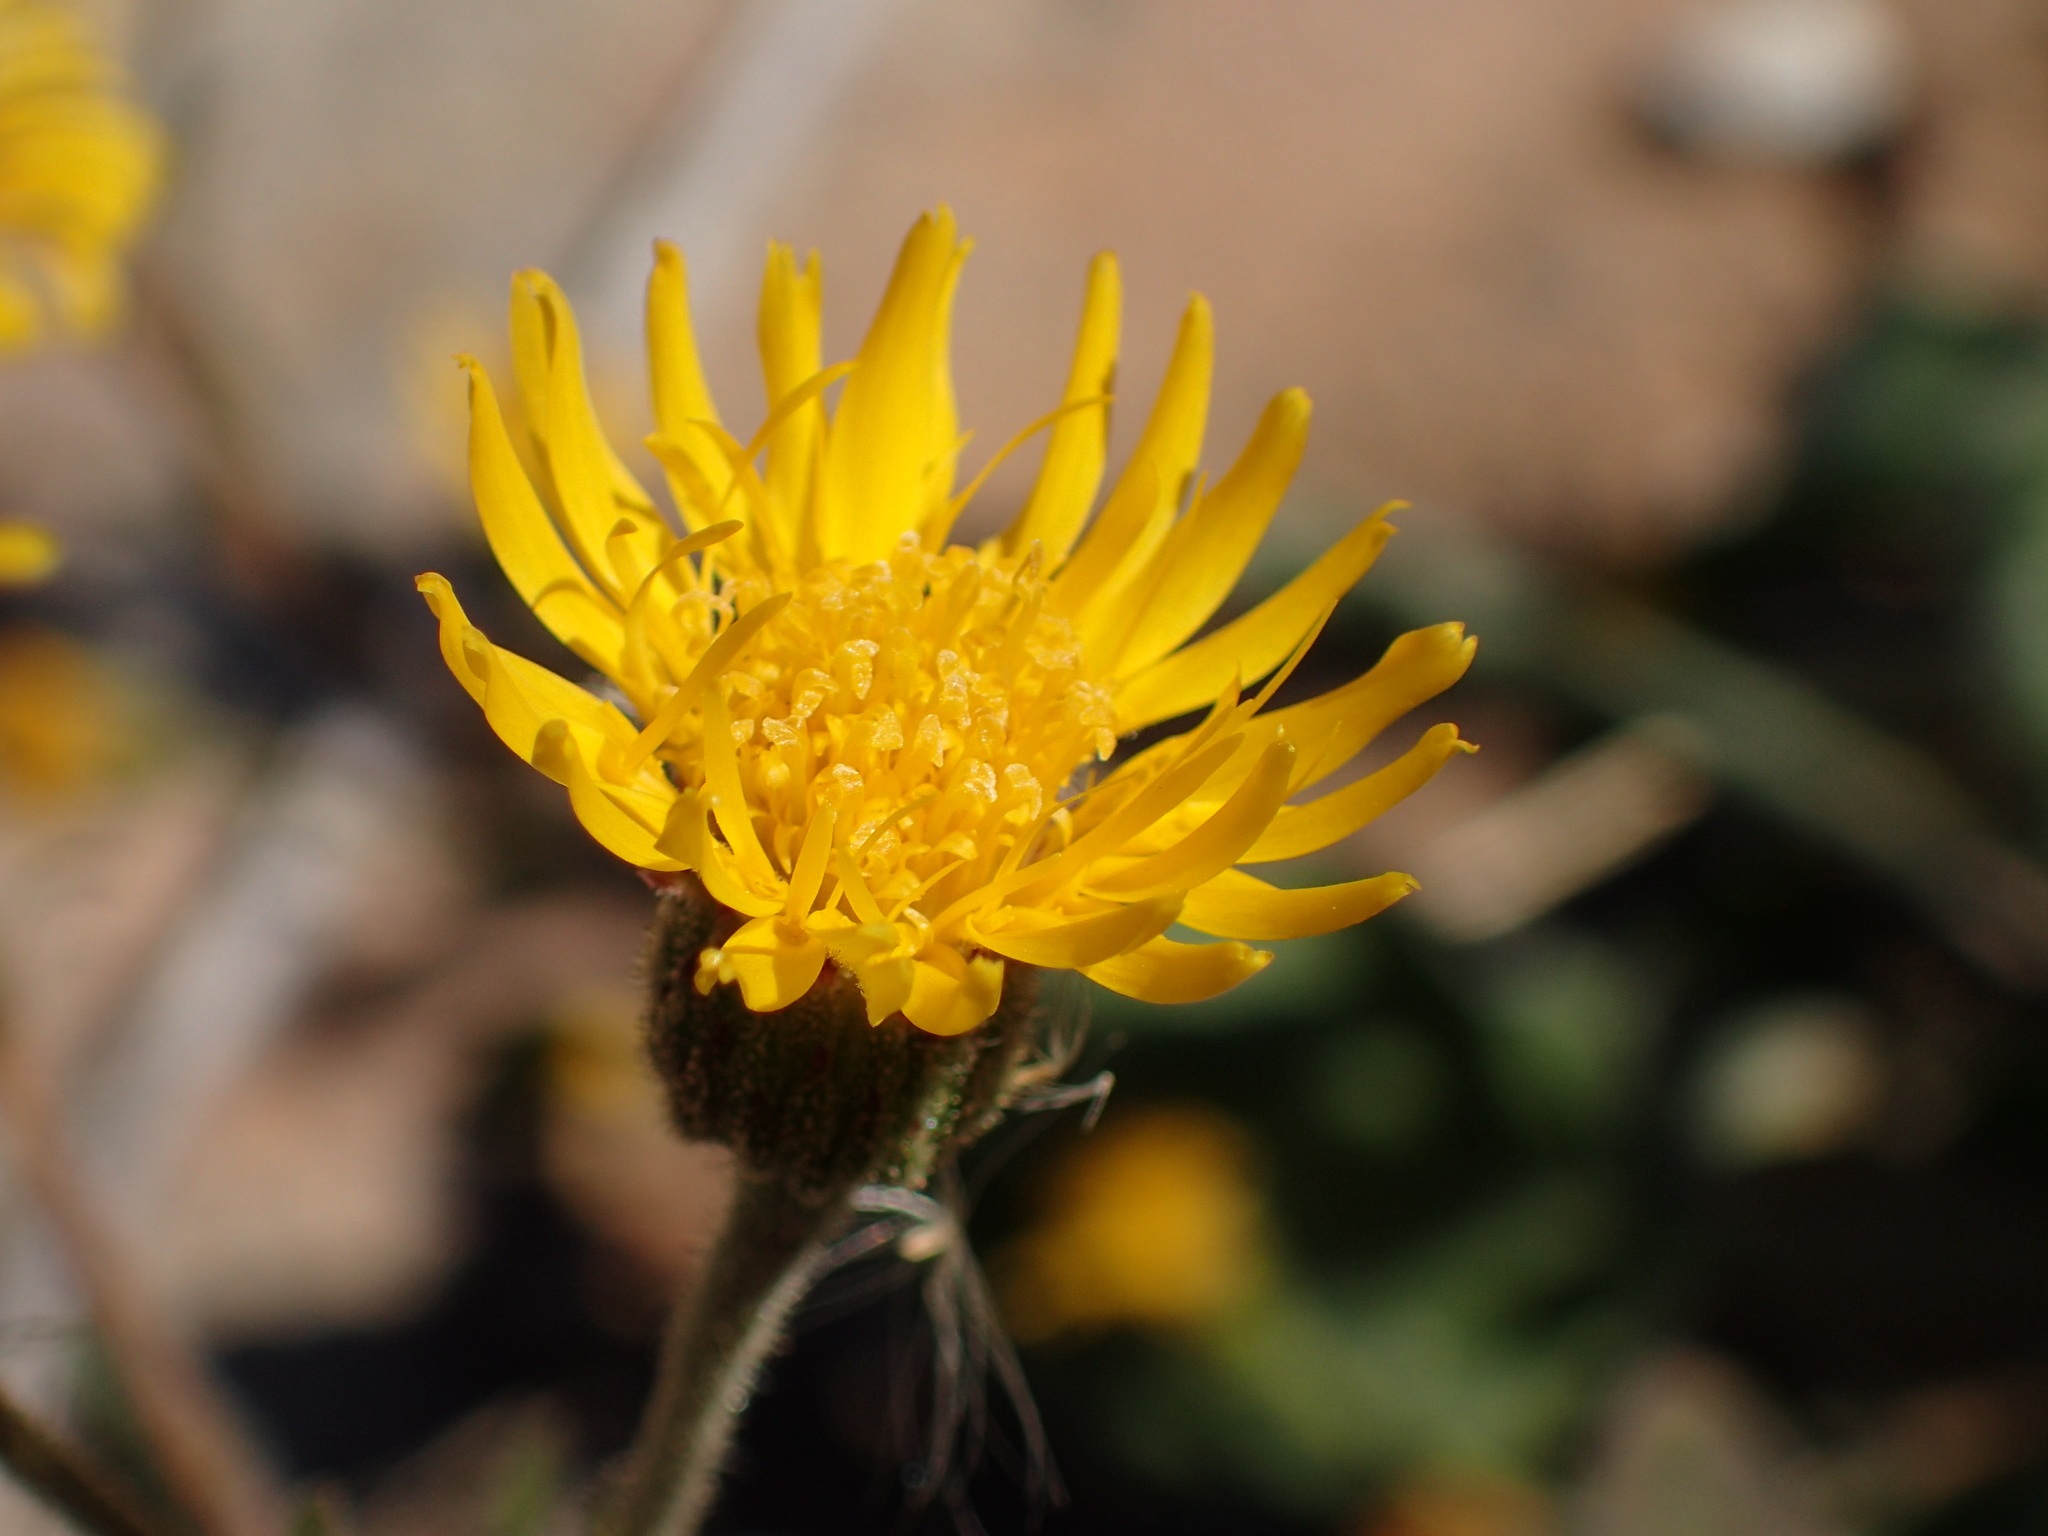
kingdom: Plantae
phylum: Tracheophyta
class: Magnoliopsida
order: Asterales
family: Asteraceae
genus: Heterotheca
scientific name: Heterotheca grandiflora
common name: Telegraphweed
